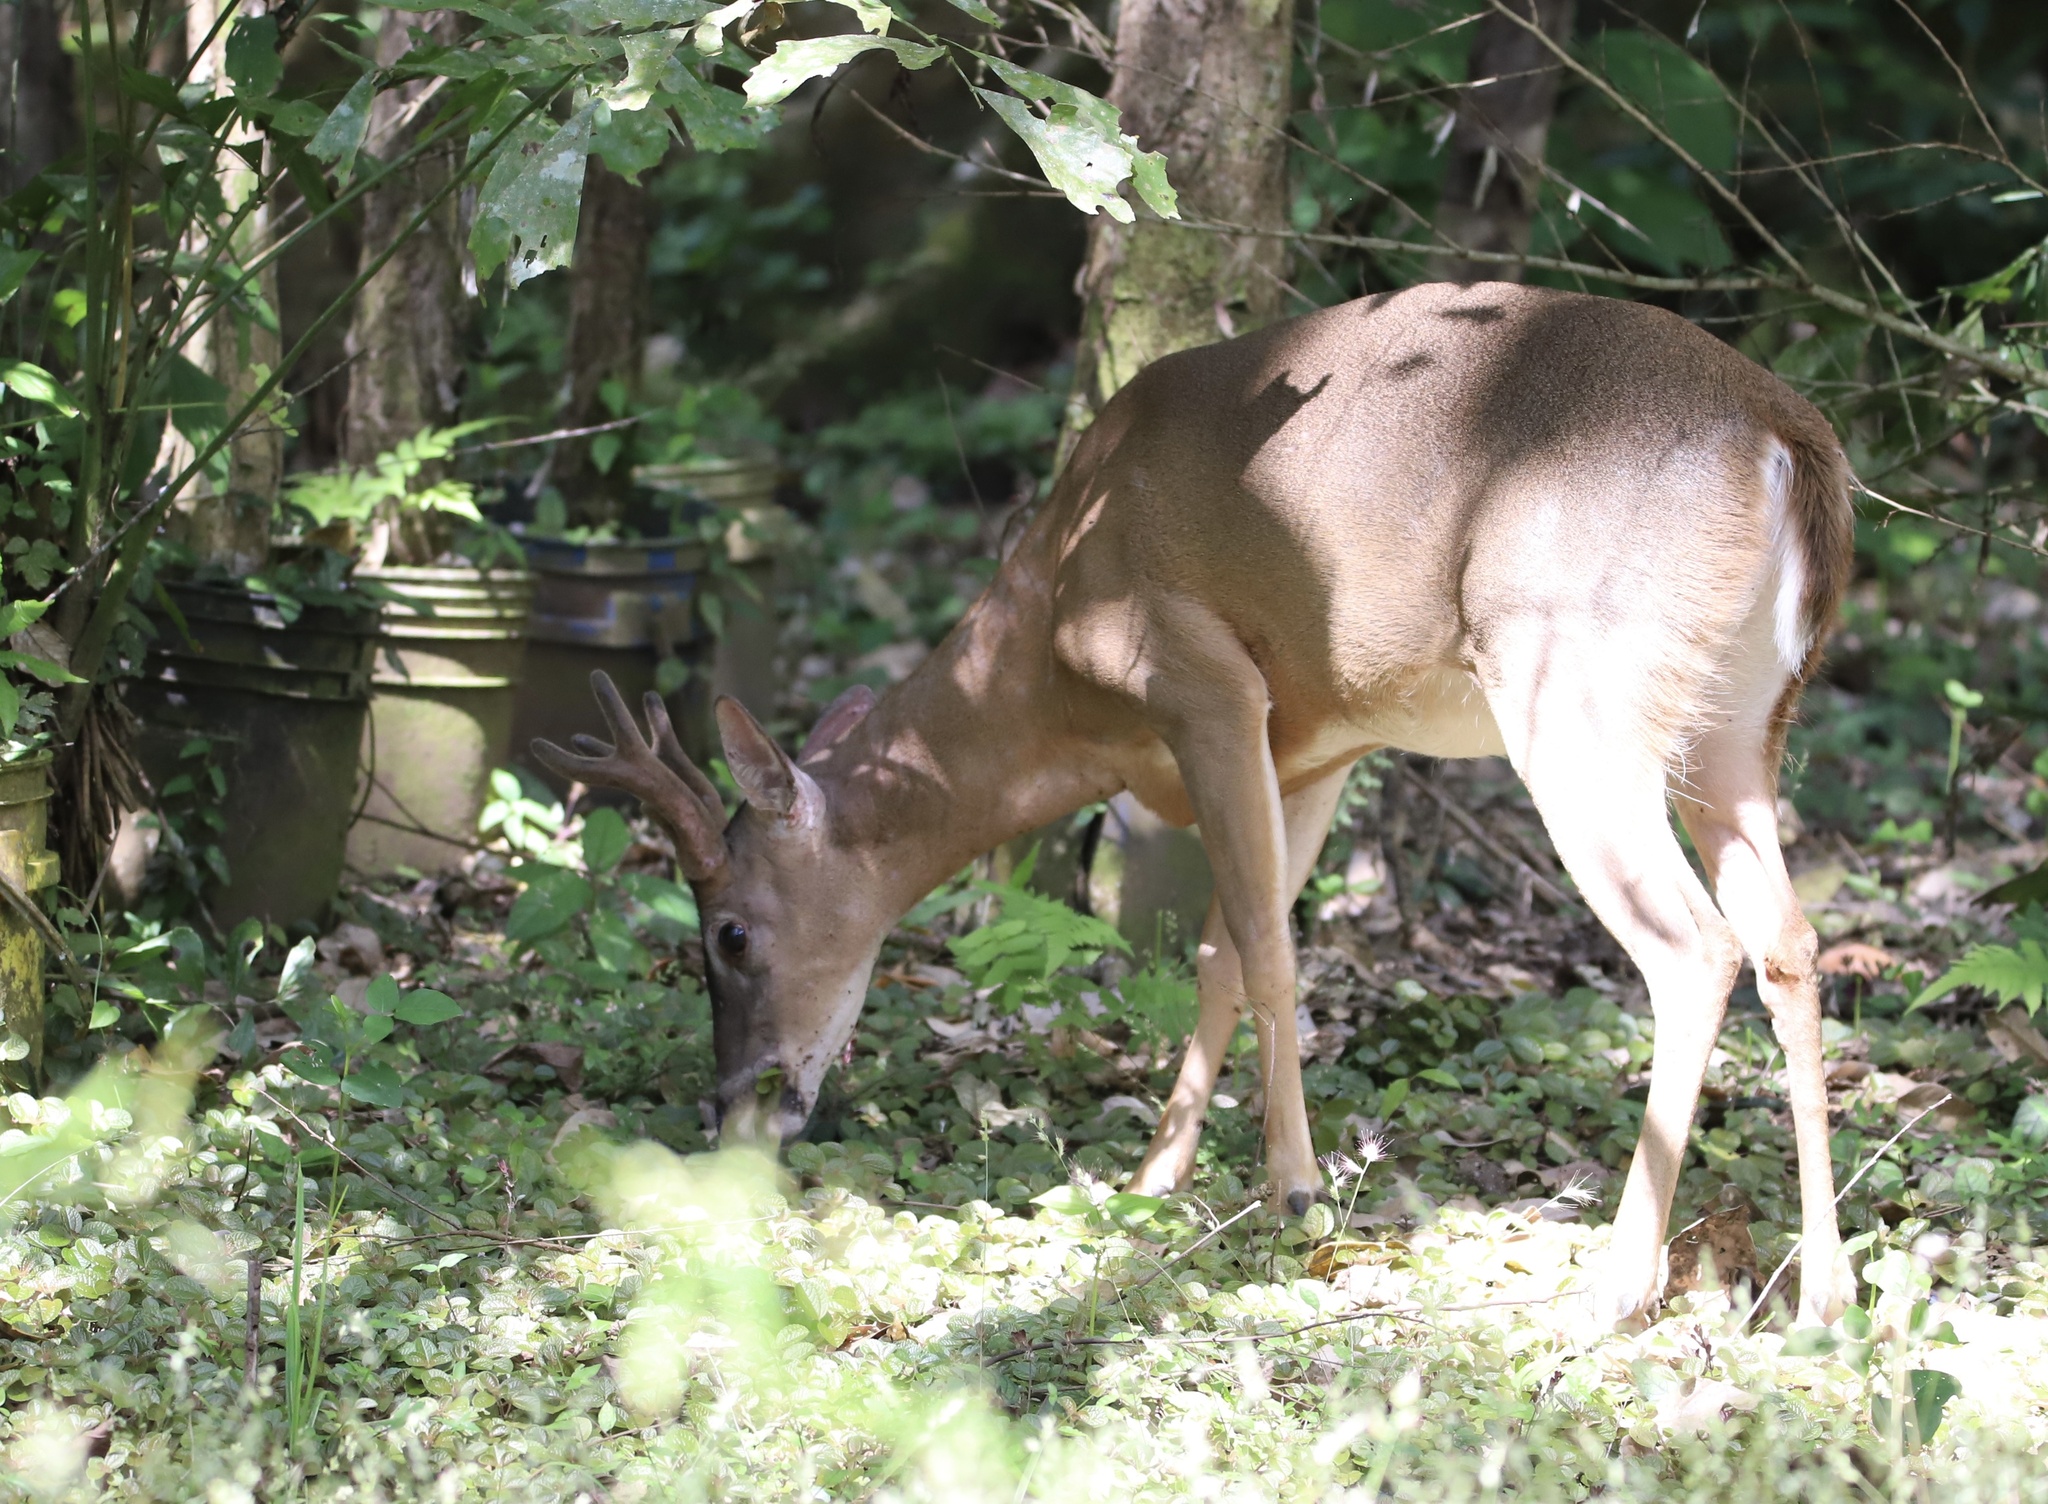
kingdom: Animalia
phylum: Chordata
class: Mammalia
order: Artiodactyla
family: Cervidae
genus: Odocoileus
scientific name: Odocoileus virginianus
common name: White-tailed deer
